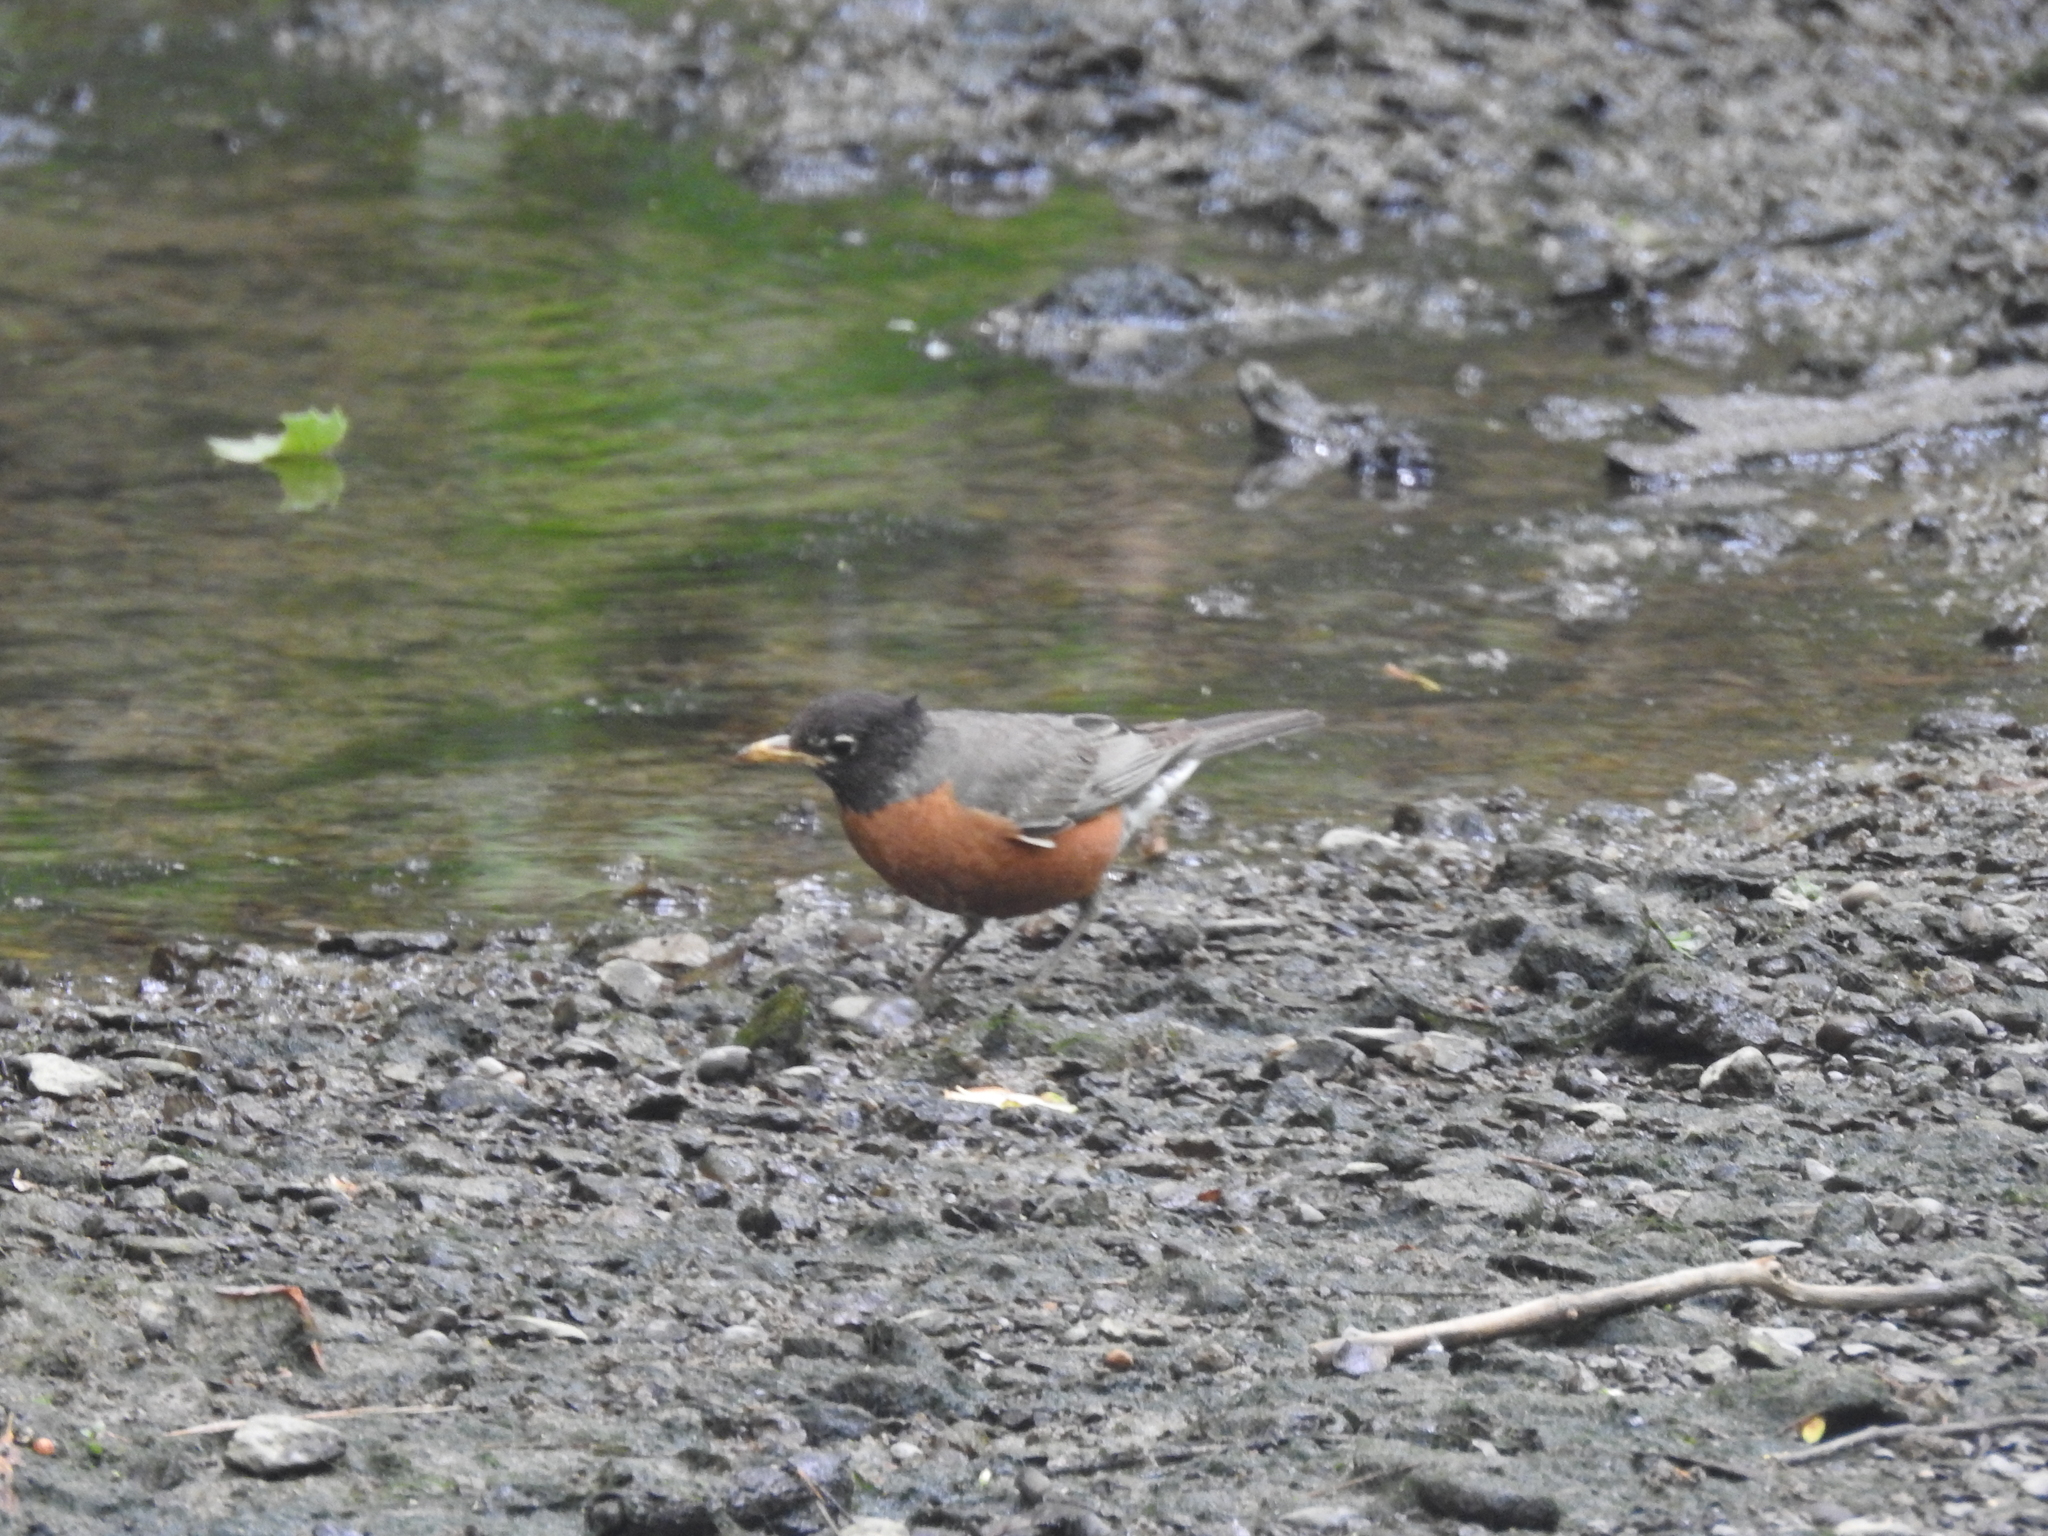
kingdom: Animalia
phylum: Chordata
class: Aves
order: Passeriformes
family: Turdidae
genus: Turdus
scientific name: Turdus migratorius
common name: American robin
